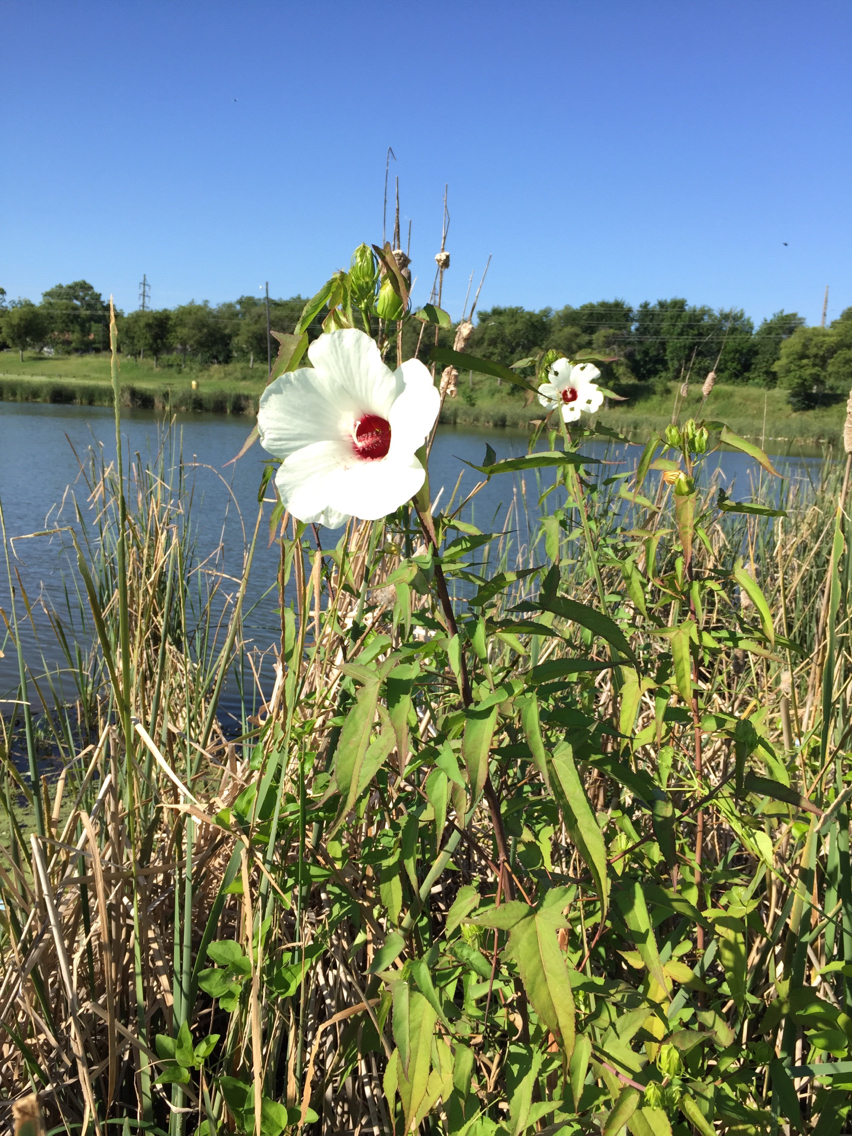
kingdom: Plantae
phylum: Tracheophyta
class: Magnoliopsida
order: Malvales
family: Malvaceae
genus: Hibiscus
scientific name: Hibiscus laevis
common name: Scarlet rose-mallow
